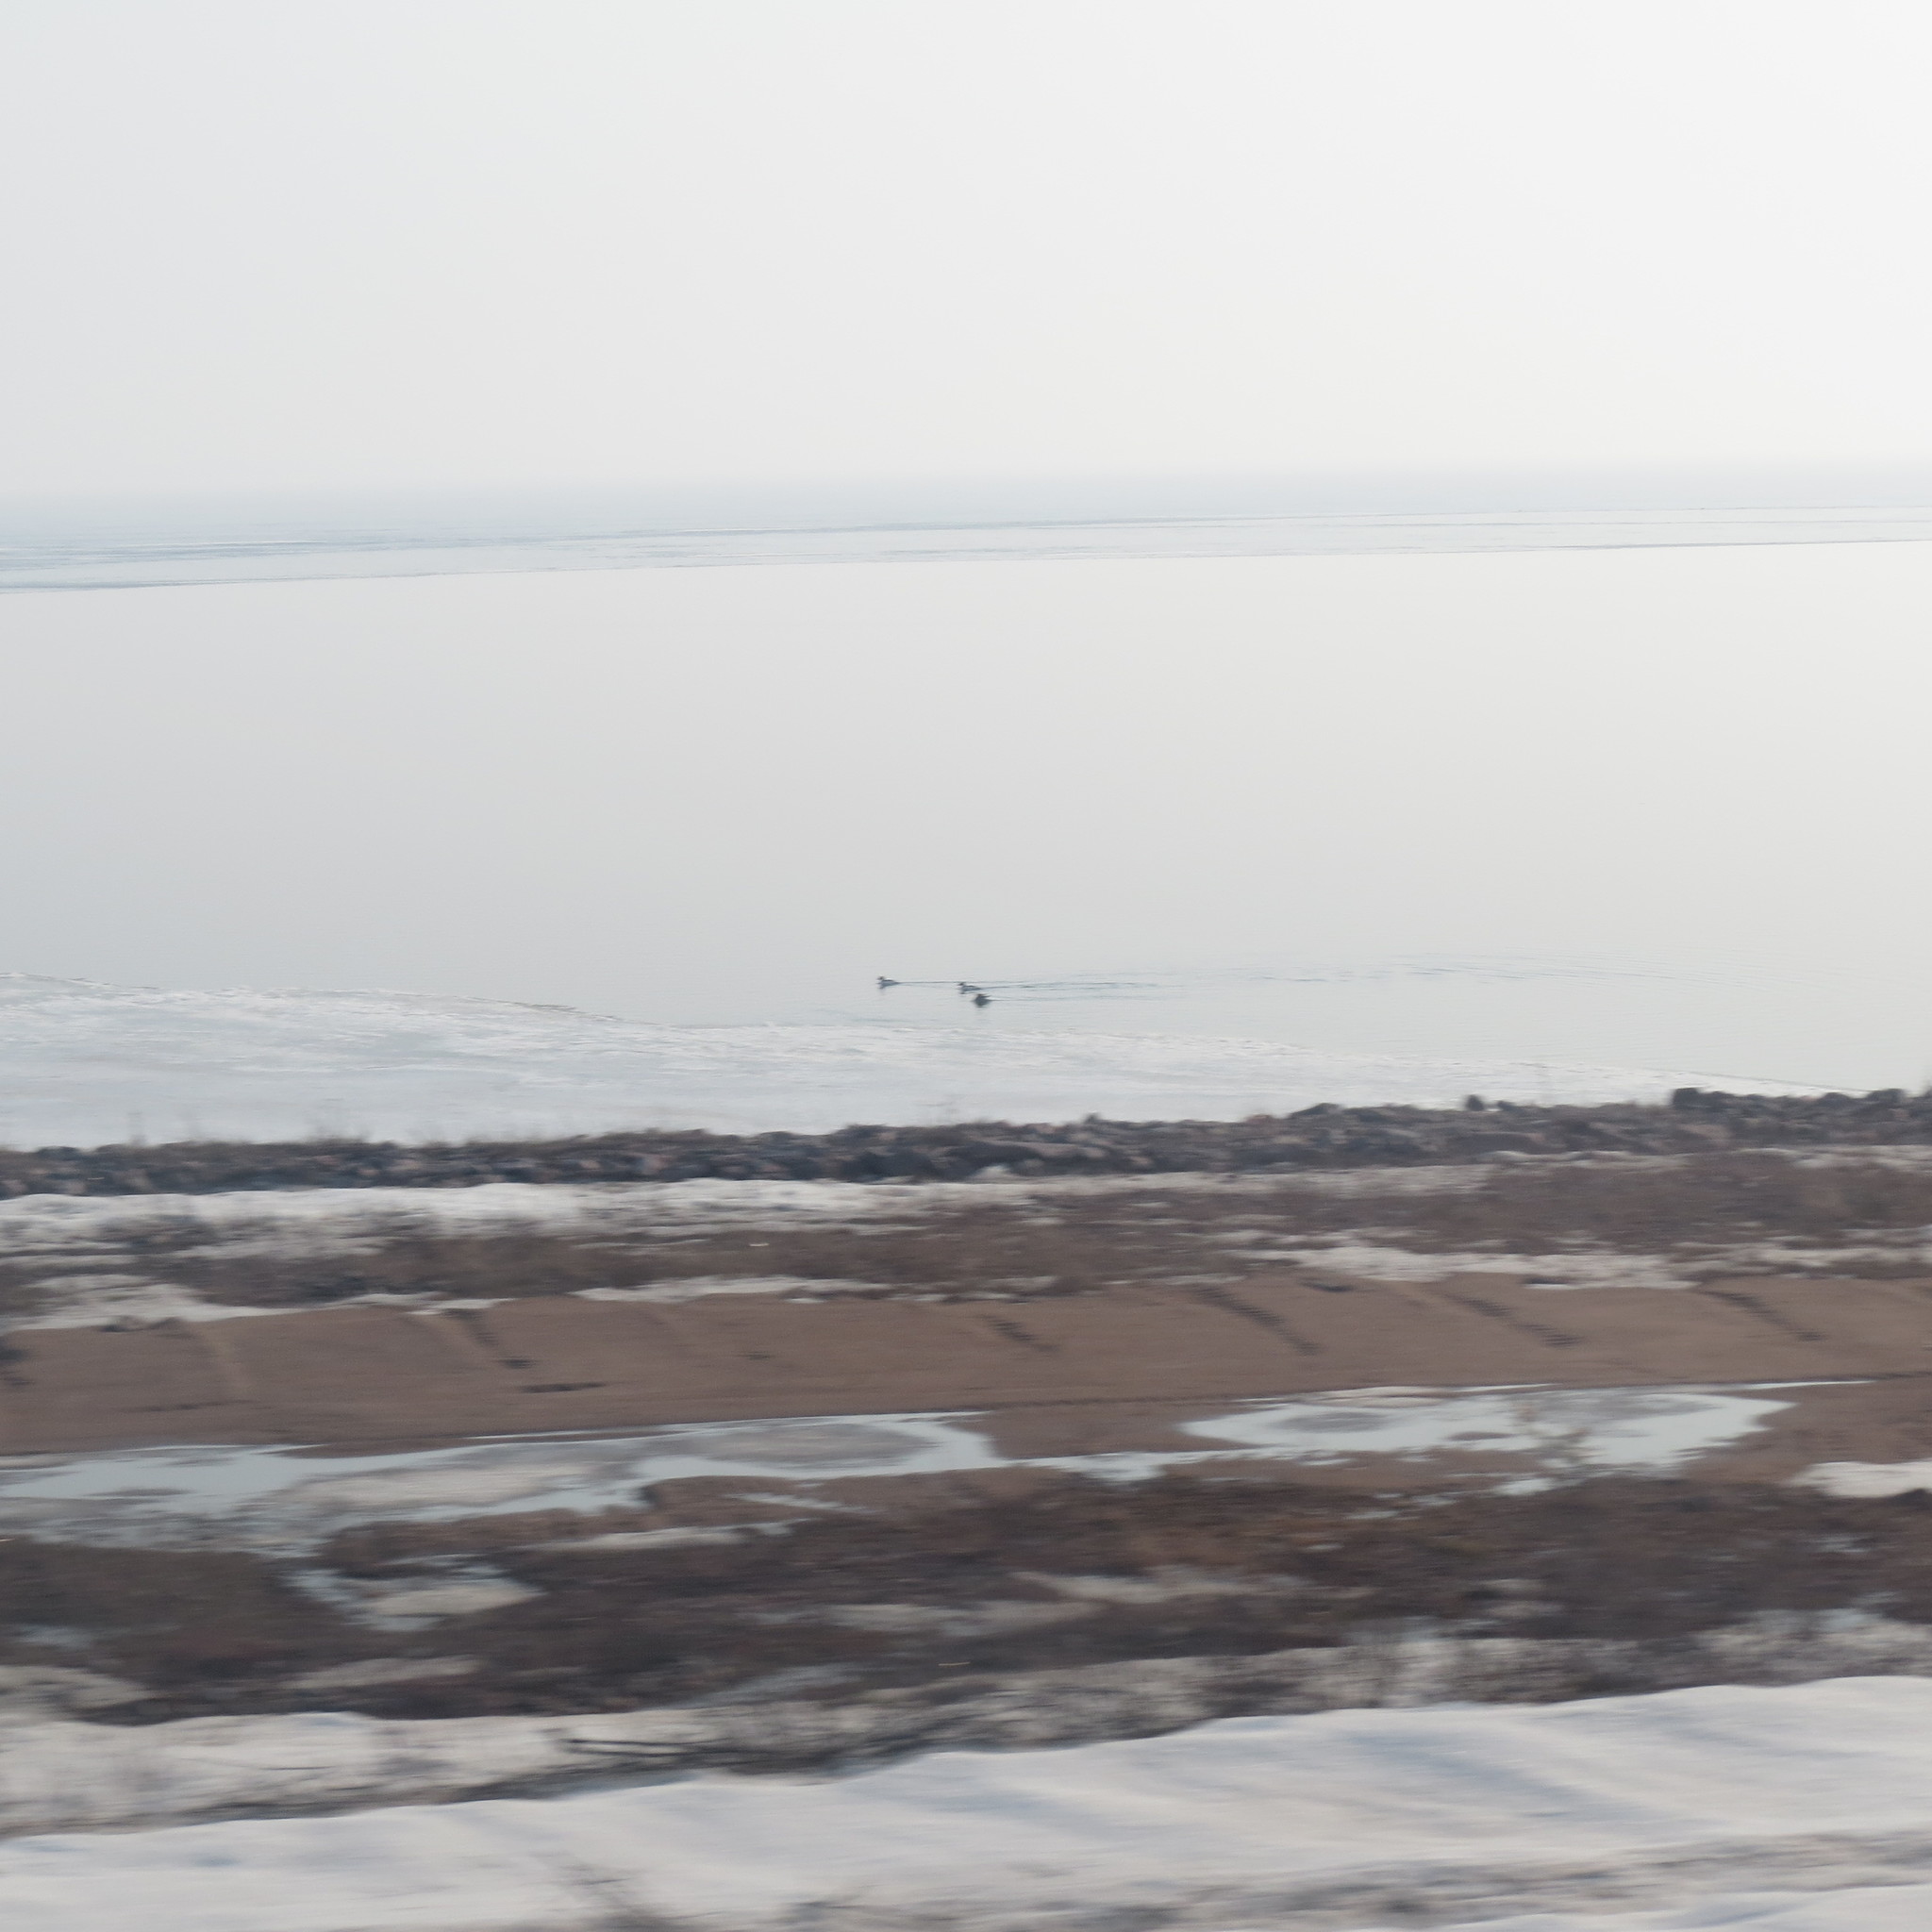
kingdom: Animalia
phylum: Chordata
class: Aves
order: Anseriformes
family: Anatidae
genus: Mergus
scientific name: Mergus merganser
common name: Common merganser
